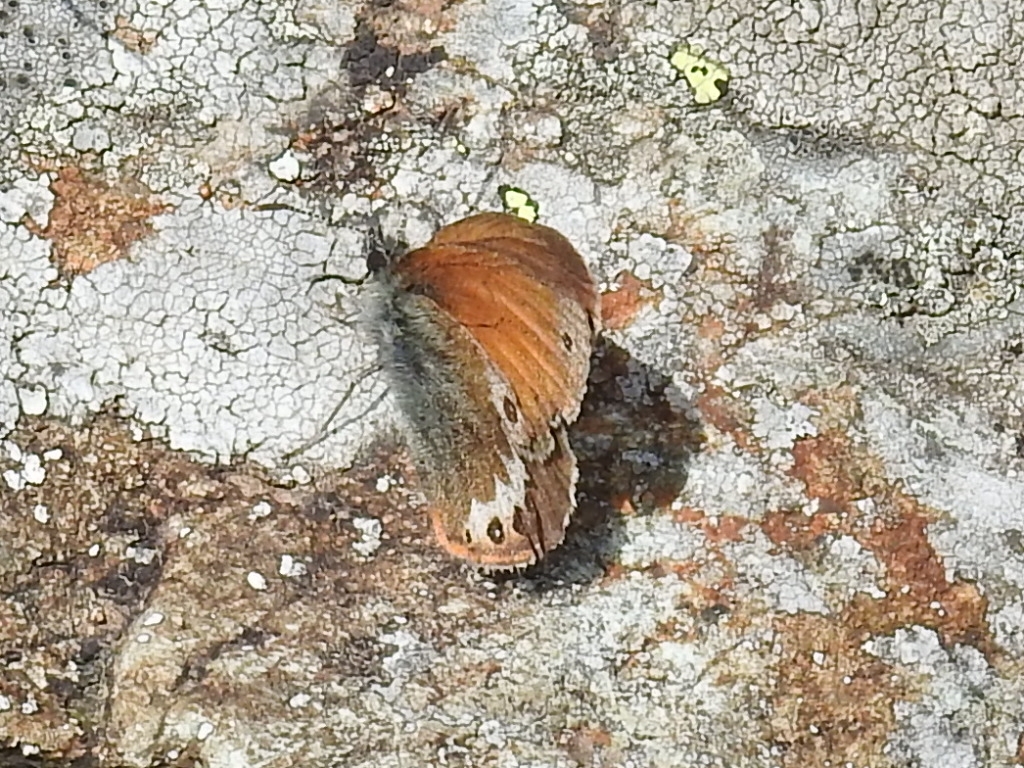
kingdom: Animalia
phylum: Arthropoda
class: Insecta
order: Lepidoptera
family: Nymphalidae
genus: Coenonympha
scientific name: Coenonympha
